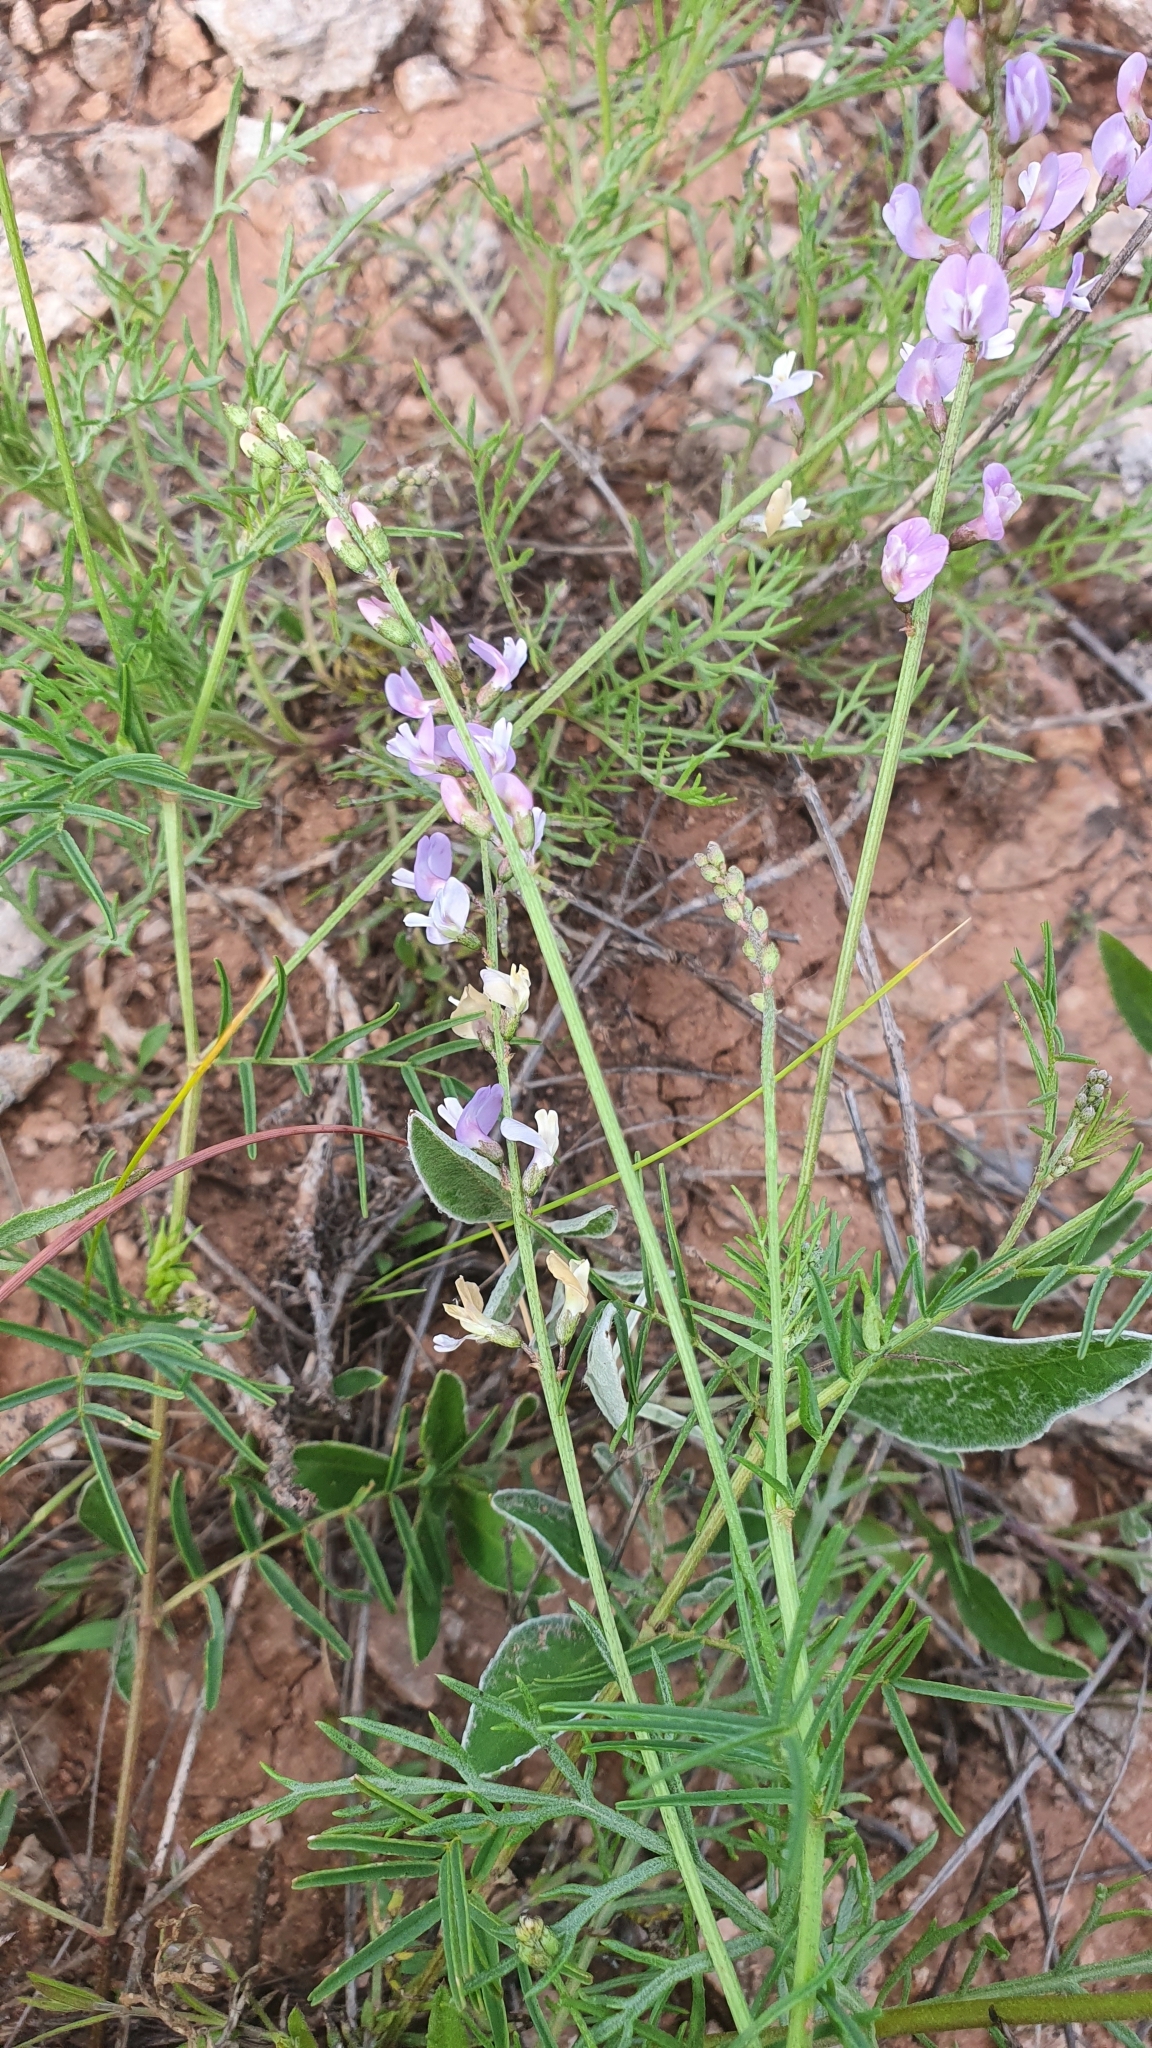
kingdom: Plantae
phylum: Tracheophyta
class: Magnoliopsida
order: Fabales
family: Fabaceae
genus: Astragalus
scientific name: Astragalus austriacus
